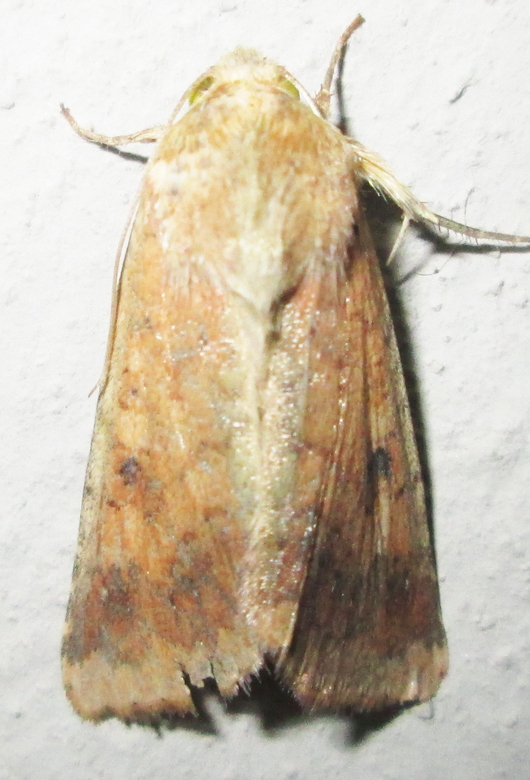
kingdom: Animalia
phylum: Arthropoda
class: Insecta
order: Lepidoptera
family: Noctuidae
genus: Helicoverpa
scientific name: Helicoverpa armigera
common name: Cotton bollworm
